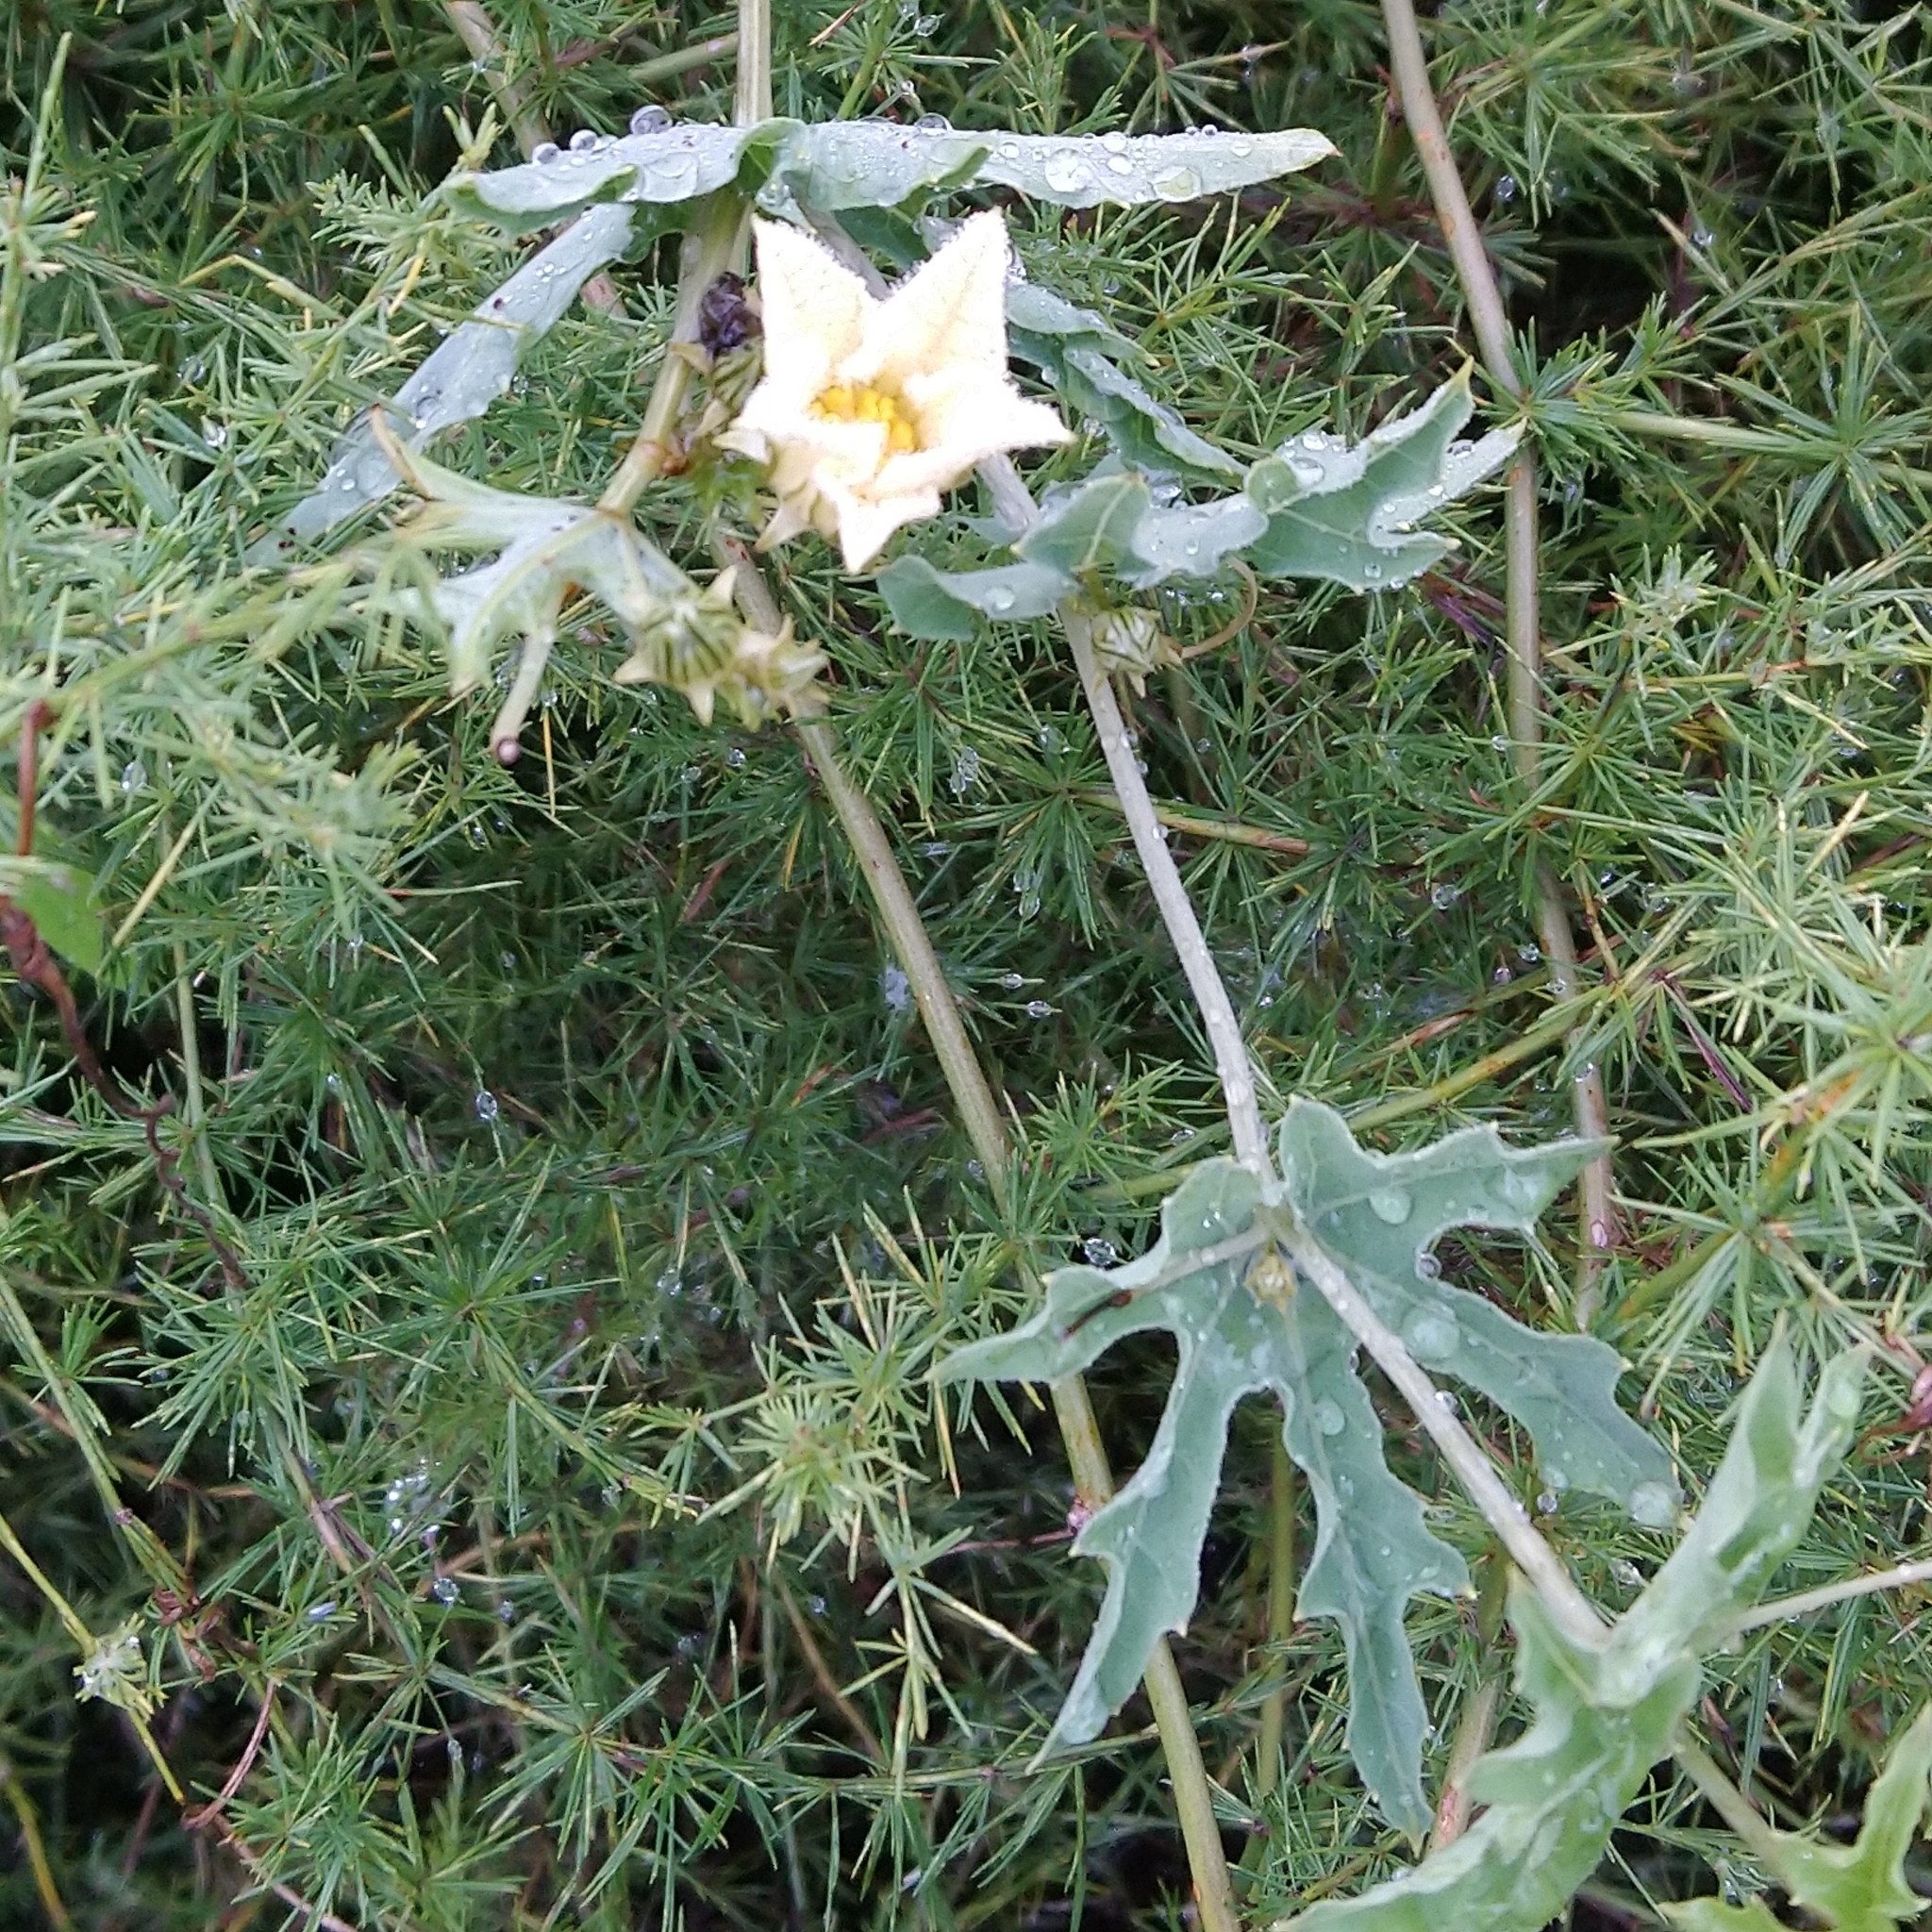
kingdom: Plantae
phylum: Tracheophyta
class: Magnoliopsida
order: Cucurbitales
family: Cucurbitaceae
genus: Coccinia
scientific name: Coccinia sessilifolia
